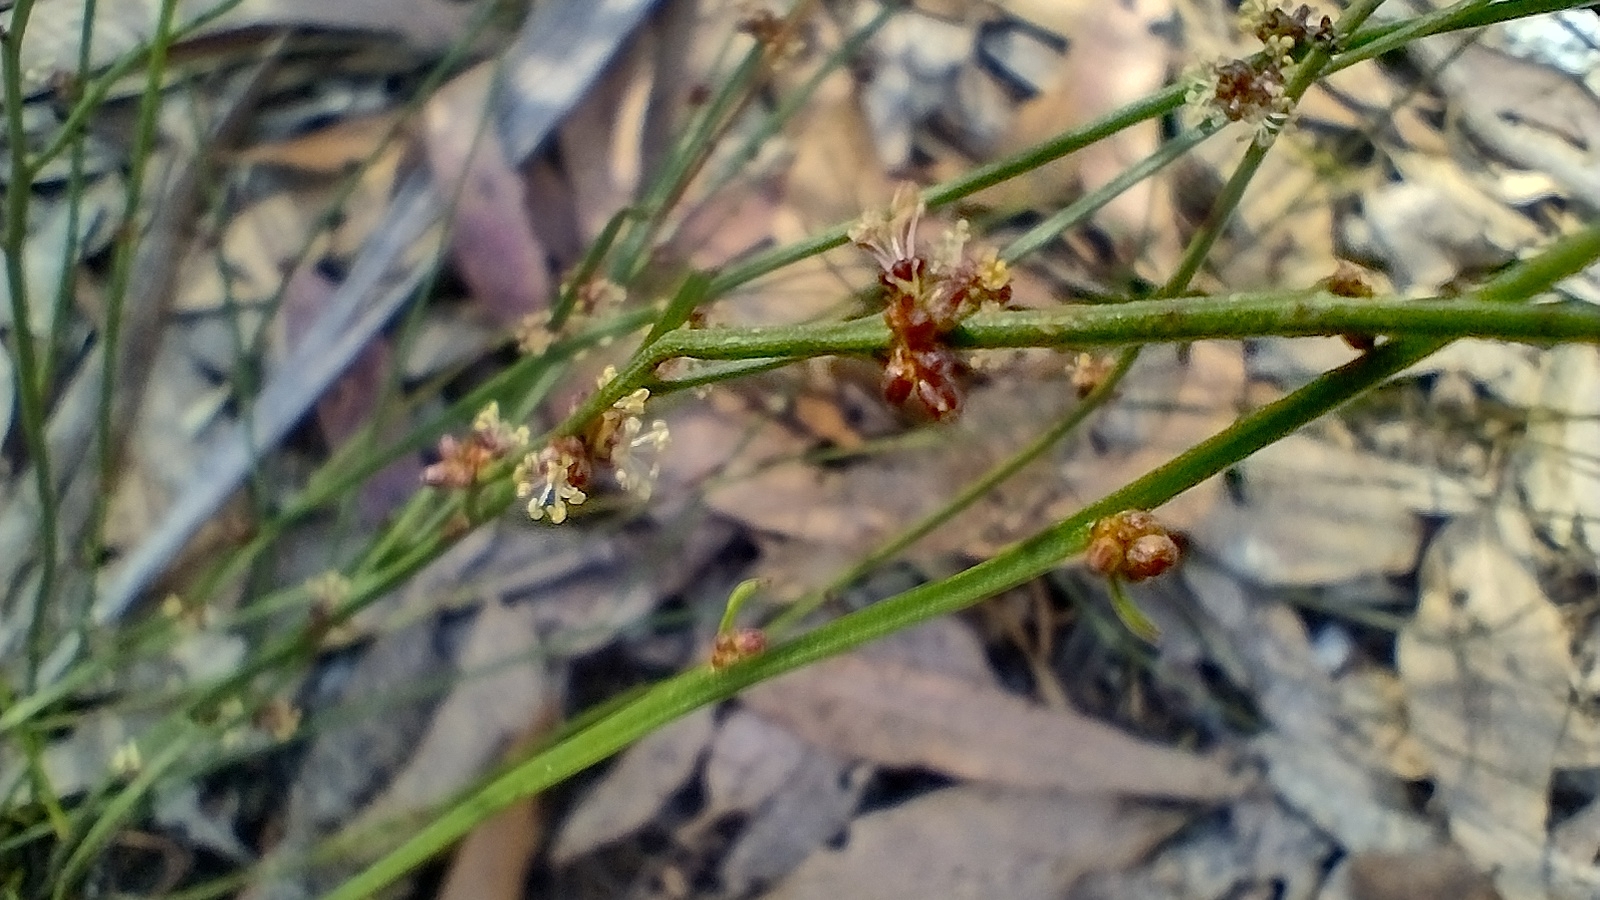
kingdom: Plantae
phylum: Tracheophyta
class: Magnoliopsida
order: Malpighiales
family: Euphorbiaceae
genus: Amperea
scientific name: Amperea xiphoclada
